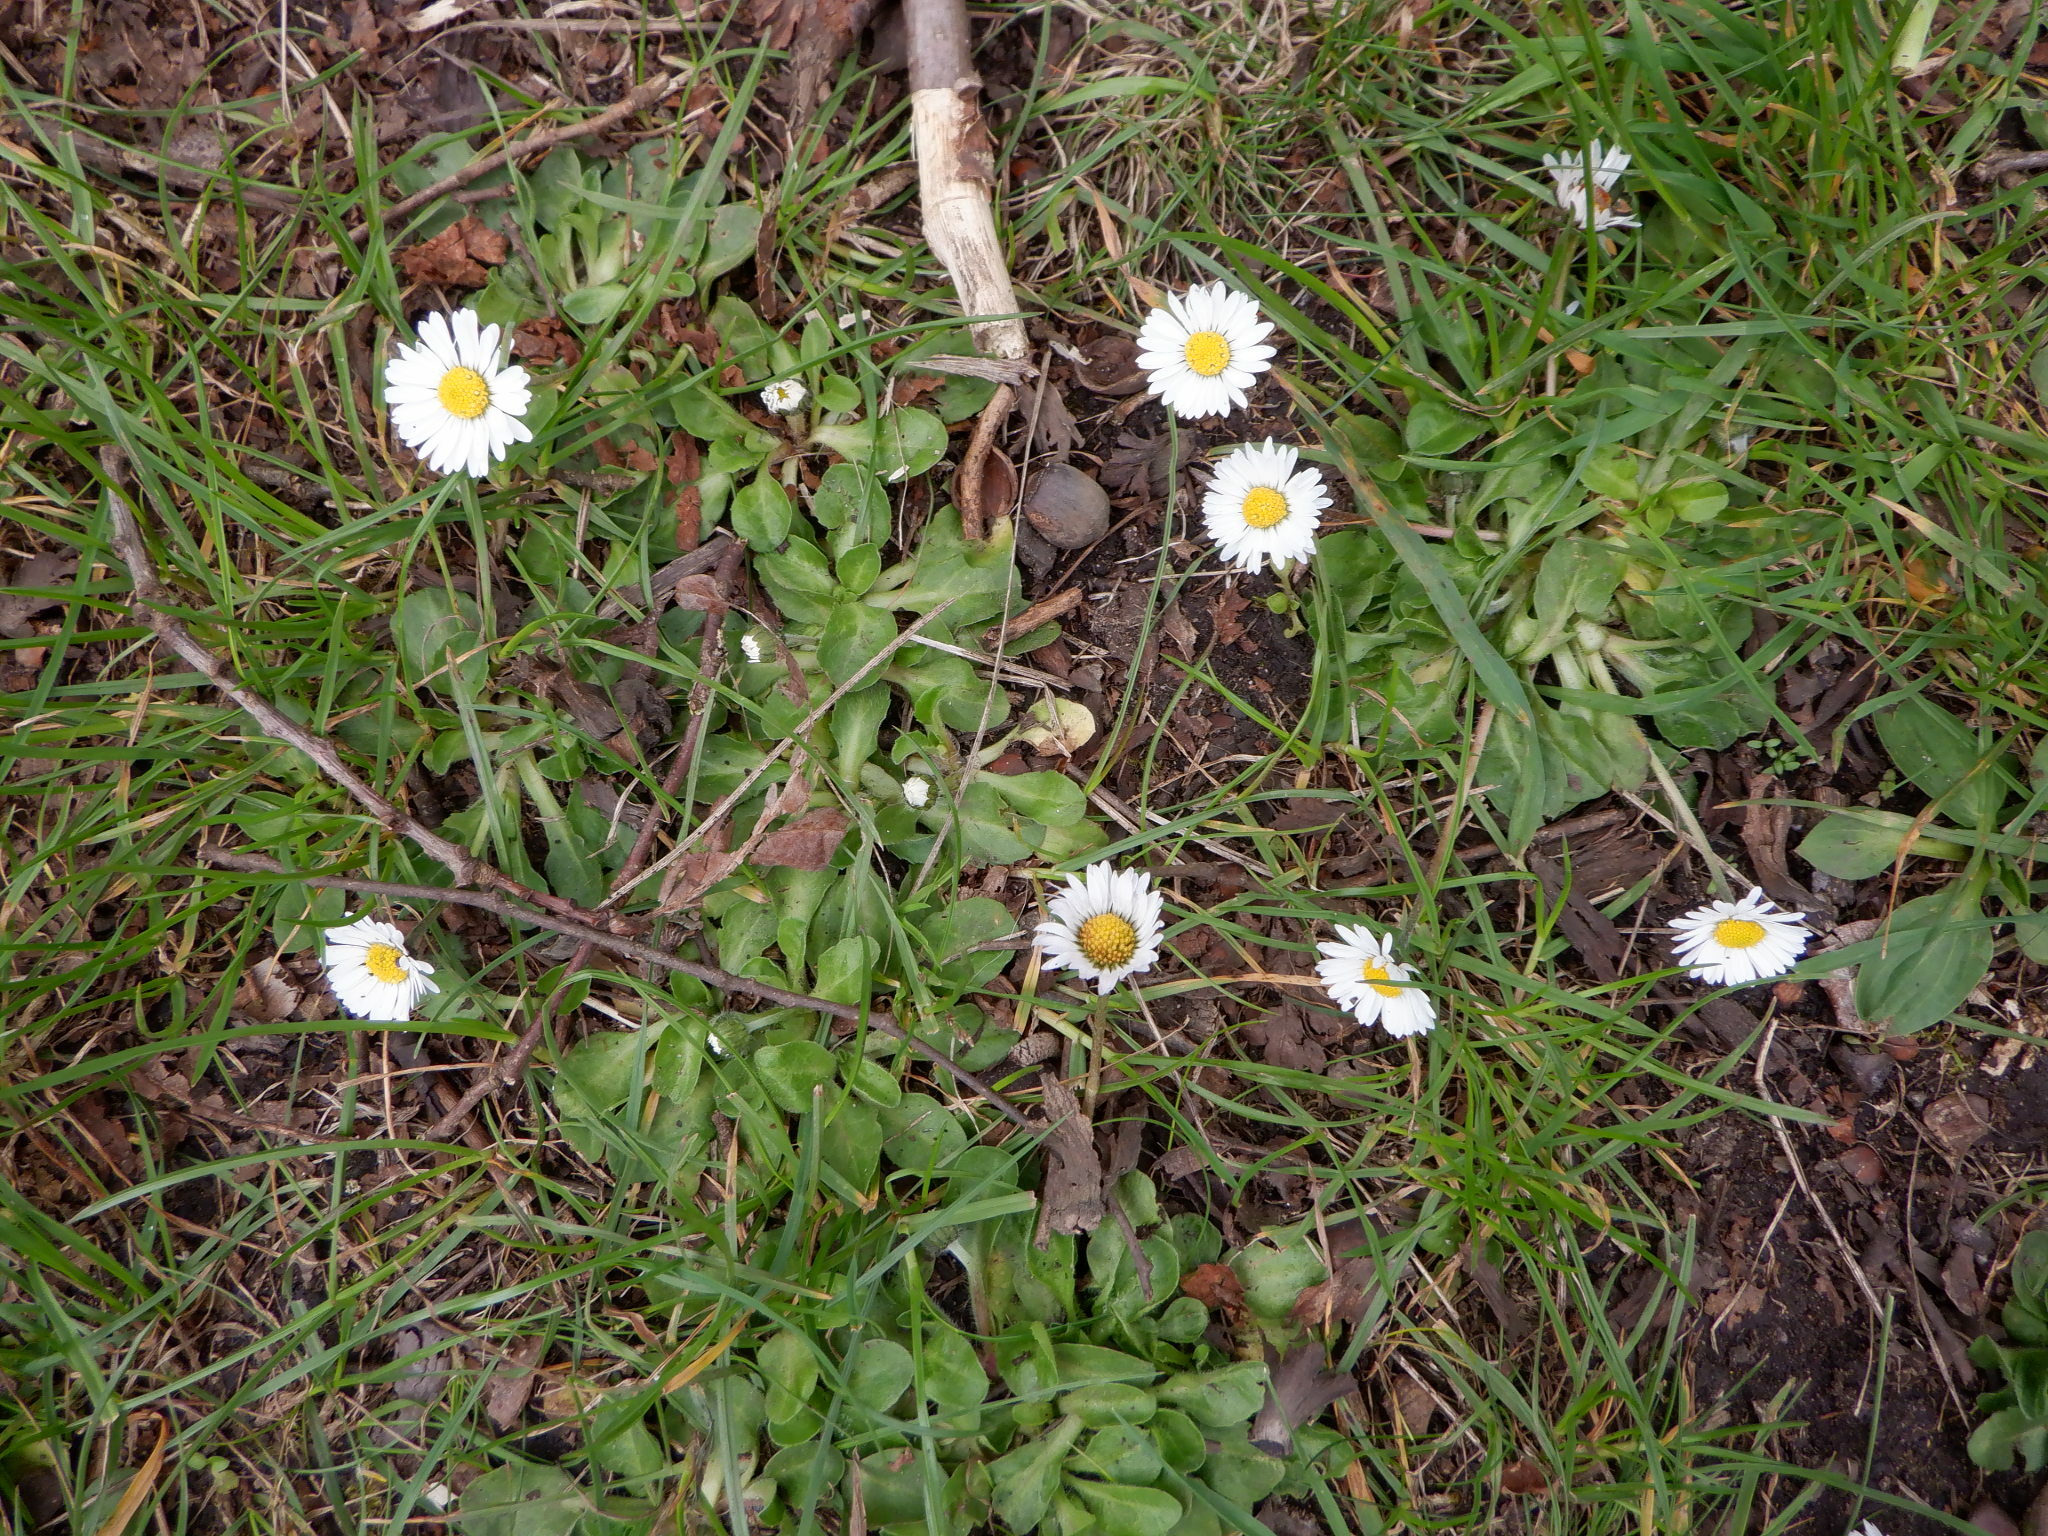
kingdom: Plantae
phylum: Tracheophyta
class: Magnoliopsida
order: Asterales
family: Asteraceae
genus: Bellis
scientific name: Bellis perennis
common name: Lawndaisy
